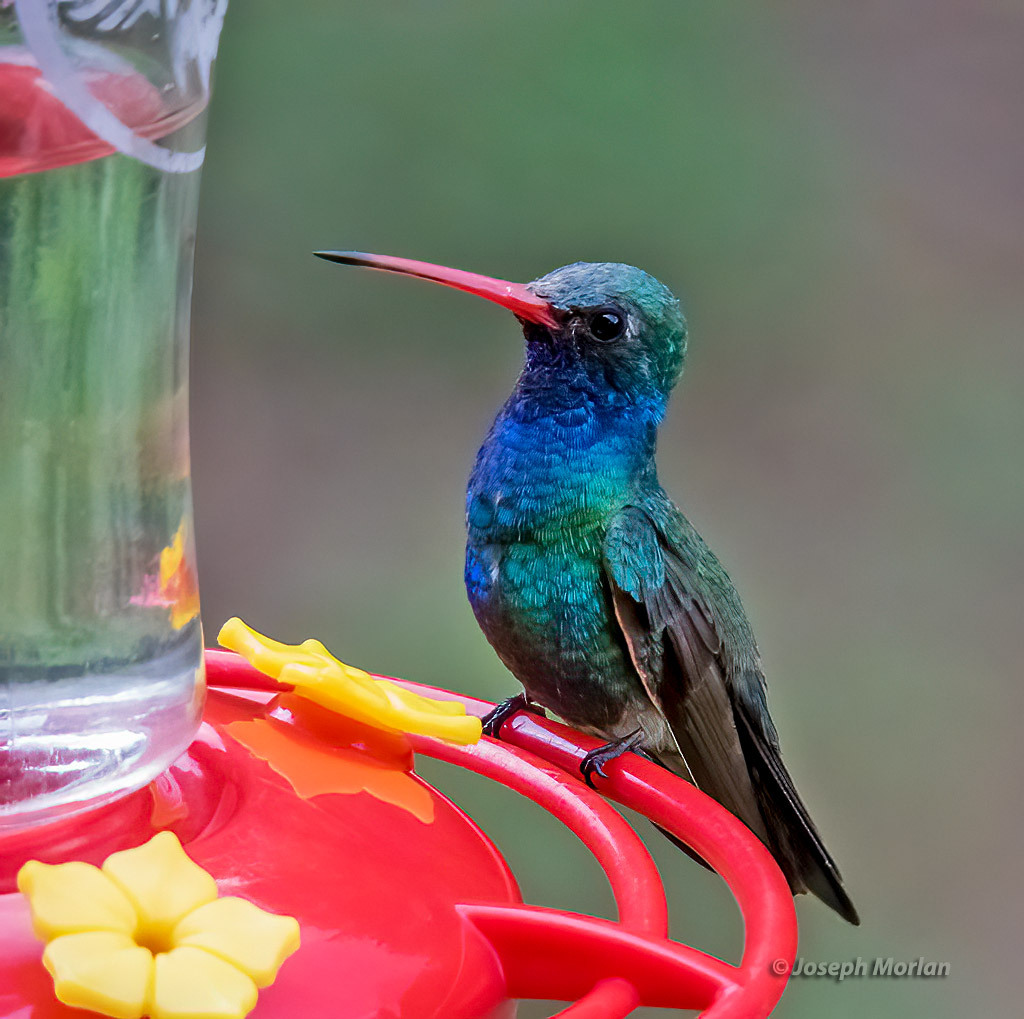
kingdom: Animalia
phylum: Chordata
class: Aves
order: Apodiformes
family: Trochilidae
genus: Cynanthus
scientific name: Cynanthus latirostris
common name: Broad-billed hummingbird
